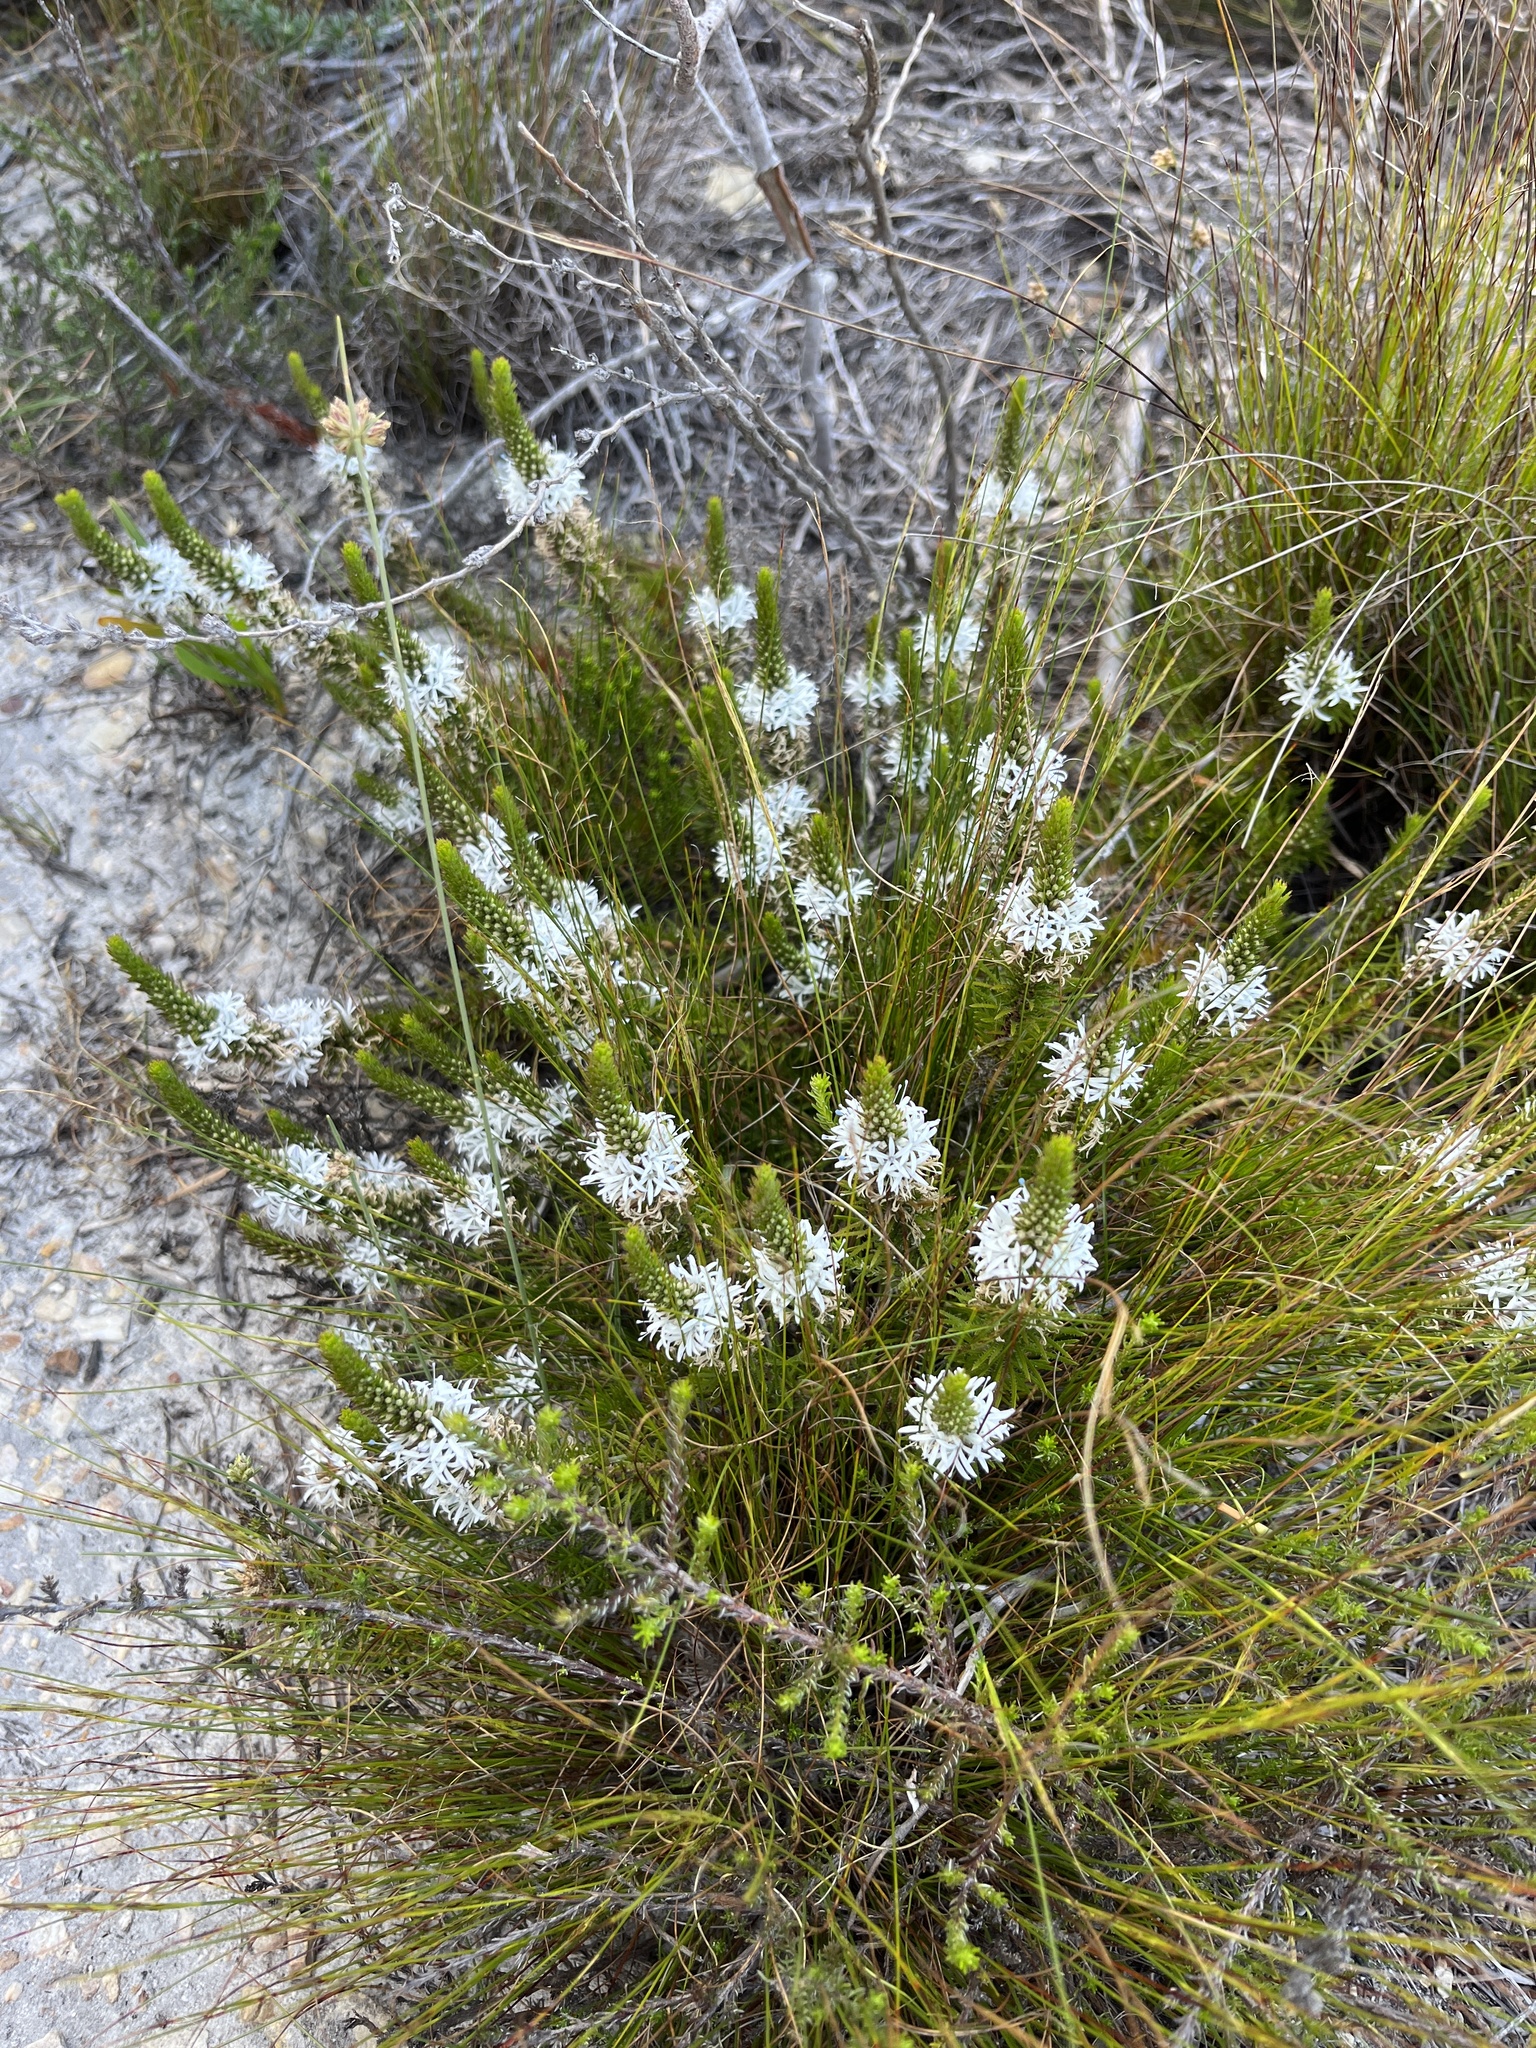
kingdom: Plantae
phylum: Tracheophyta
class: Magnoliopsida
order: Asterales
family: Campanulaceae
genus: Merciera
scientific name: Merciera leptoloba
